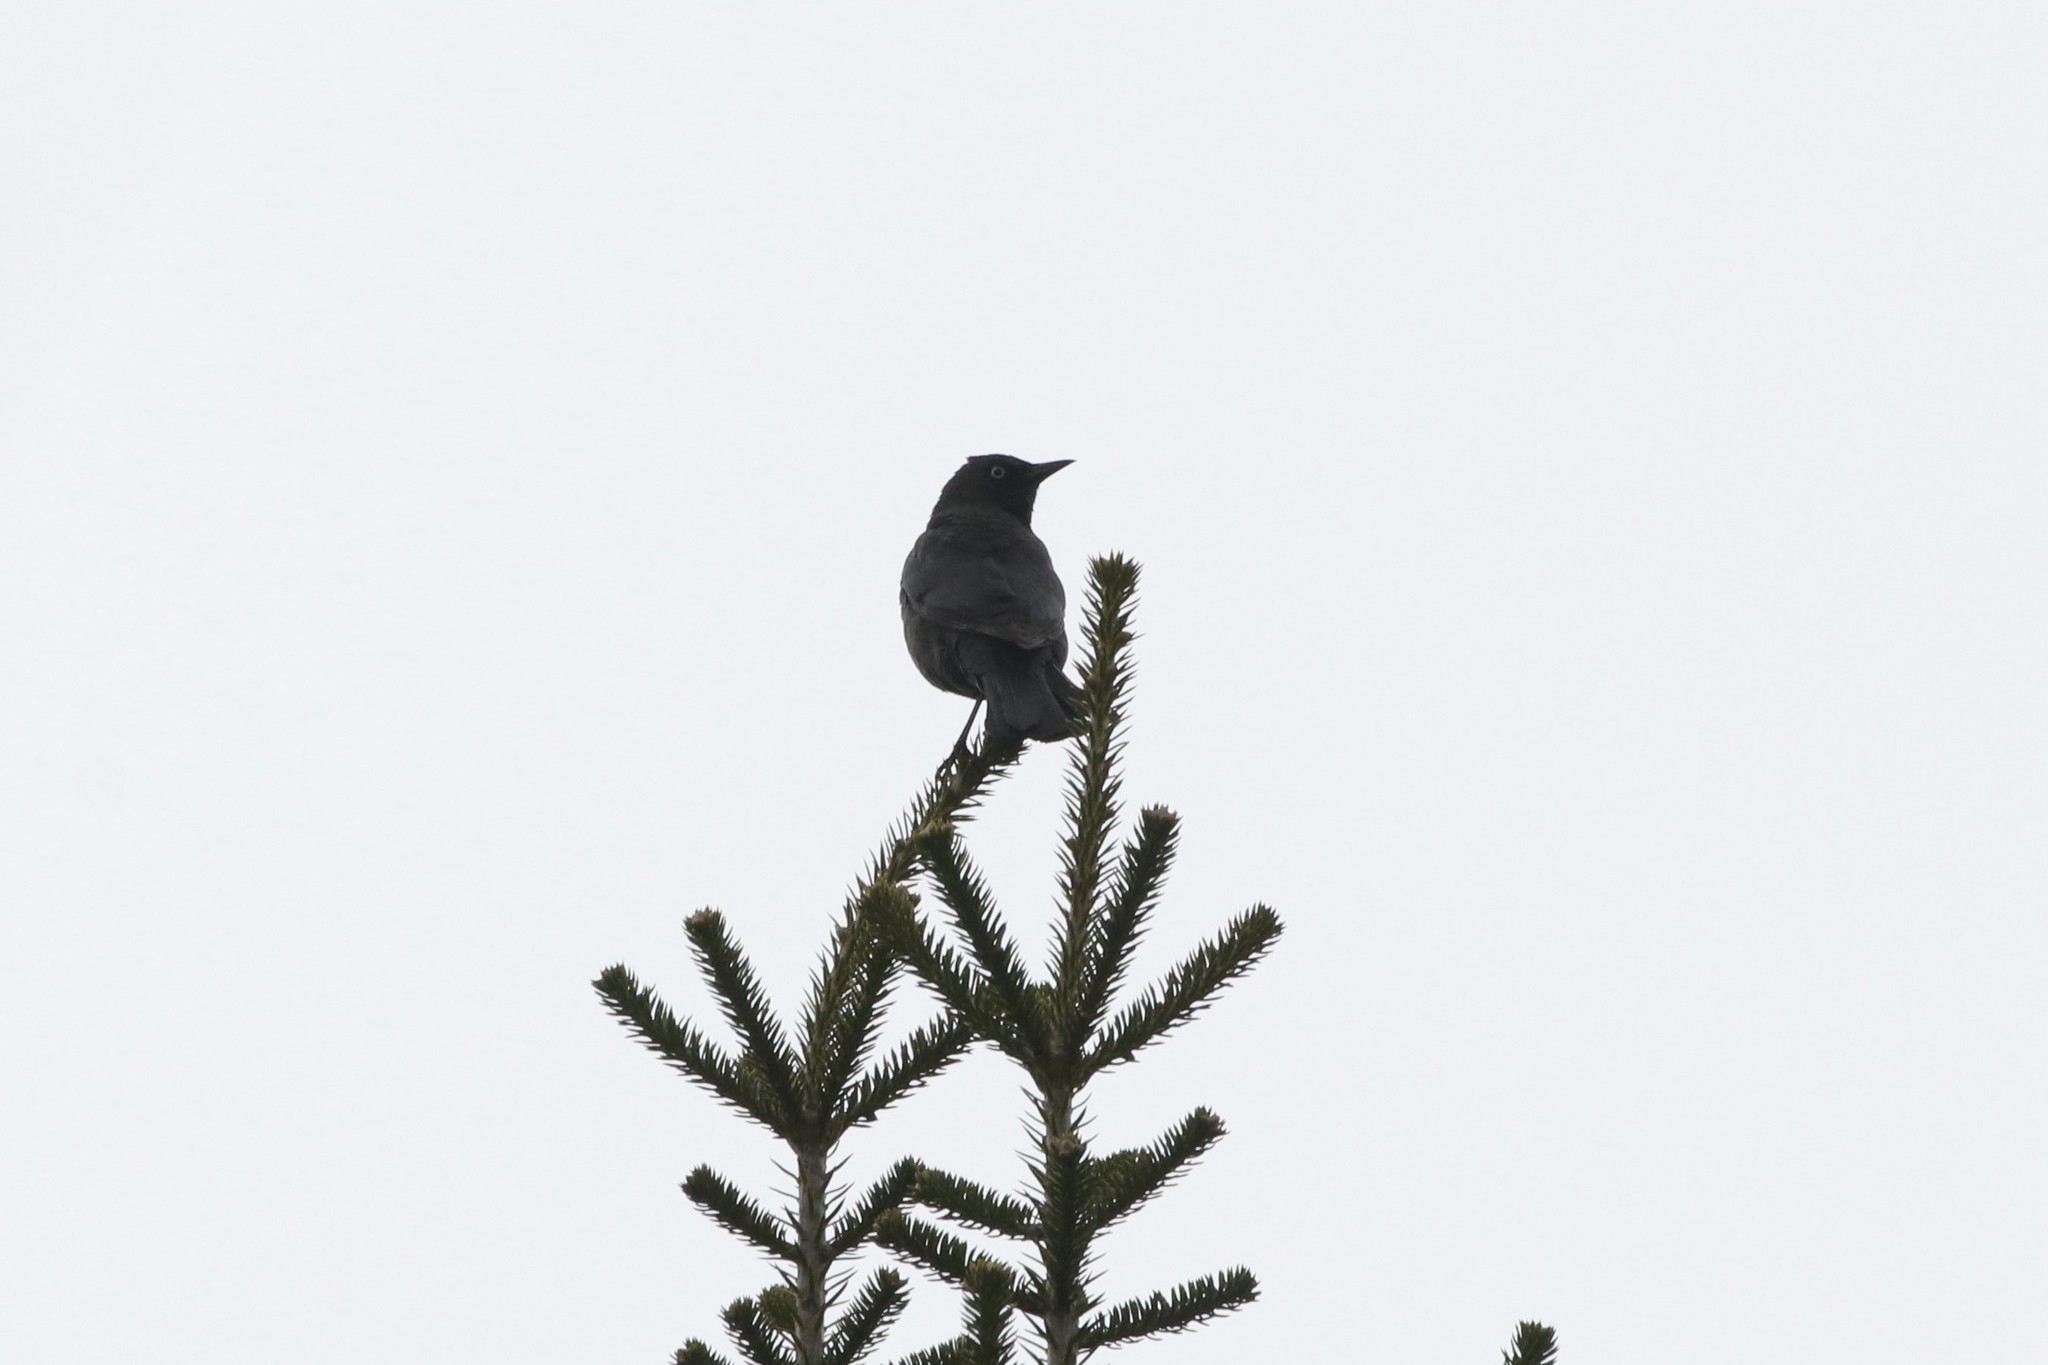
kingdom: Animalia
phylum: Chordata
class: Aves
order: Passeriformes
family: Icteridae
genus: Euphagus
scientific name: Euphagus carolinus
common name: Rusty blackbird
